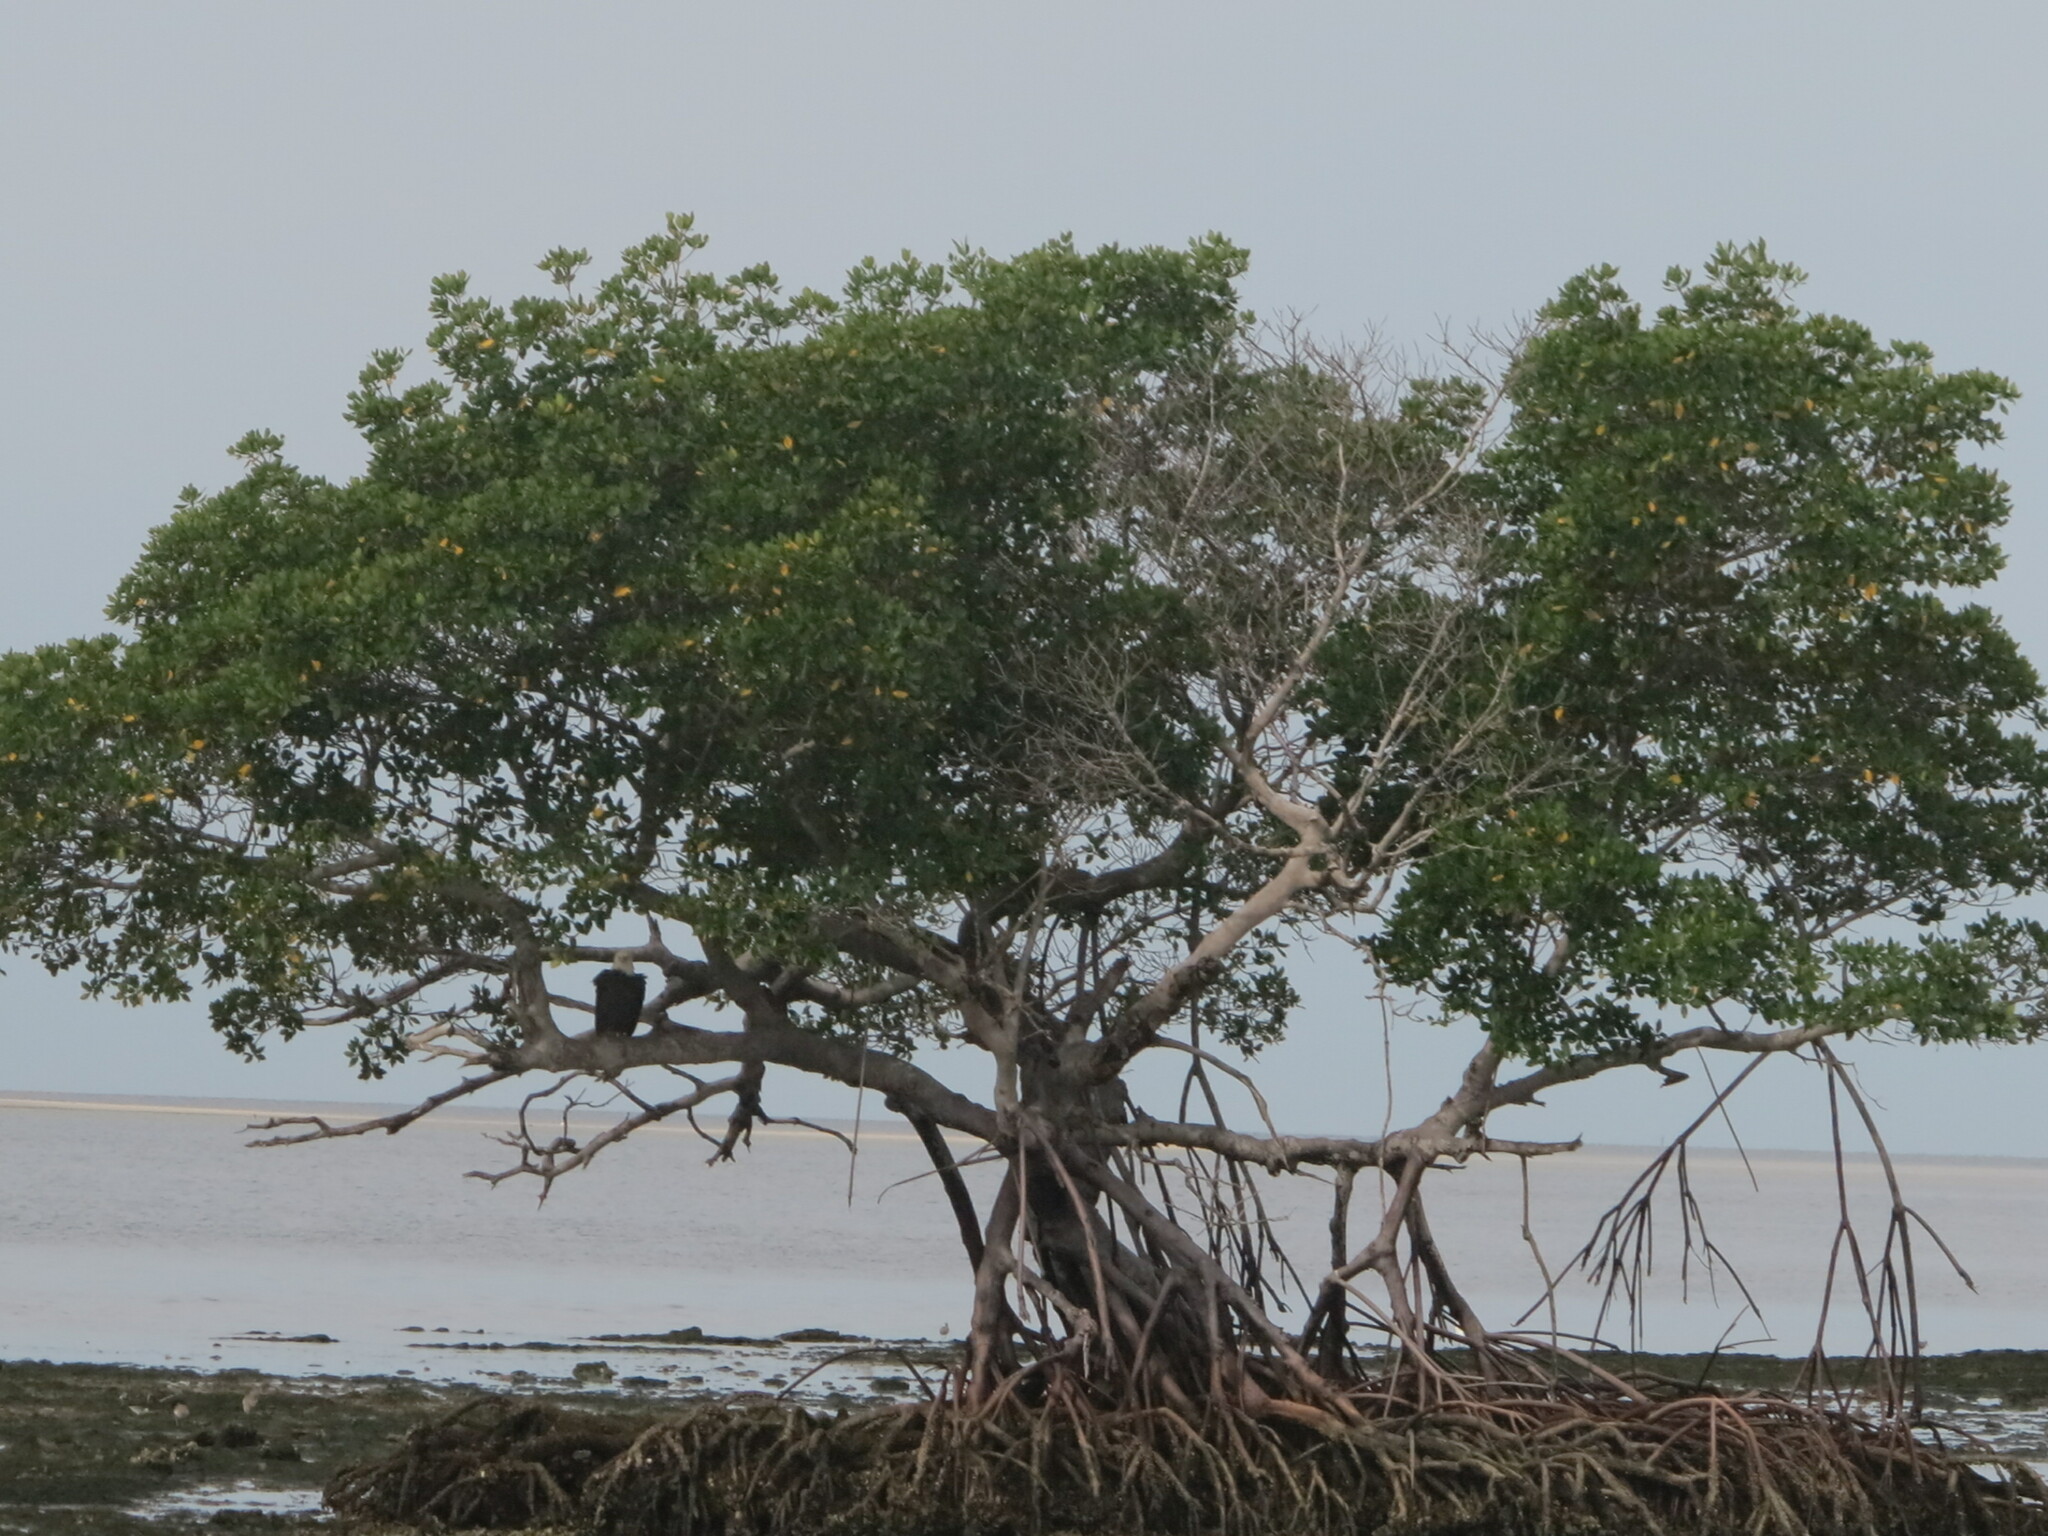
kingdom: Plantae
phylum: Tracheophyta
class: Magnoliopsida
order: Malpighiales
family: Rhizophoraceae
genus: Rhizophora
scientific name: Rhizophora mangle
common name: Red mangrove
